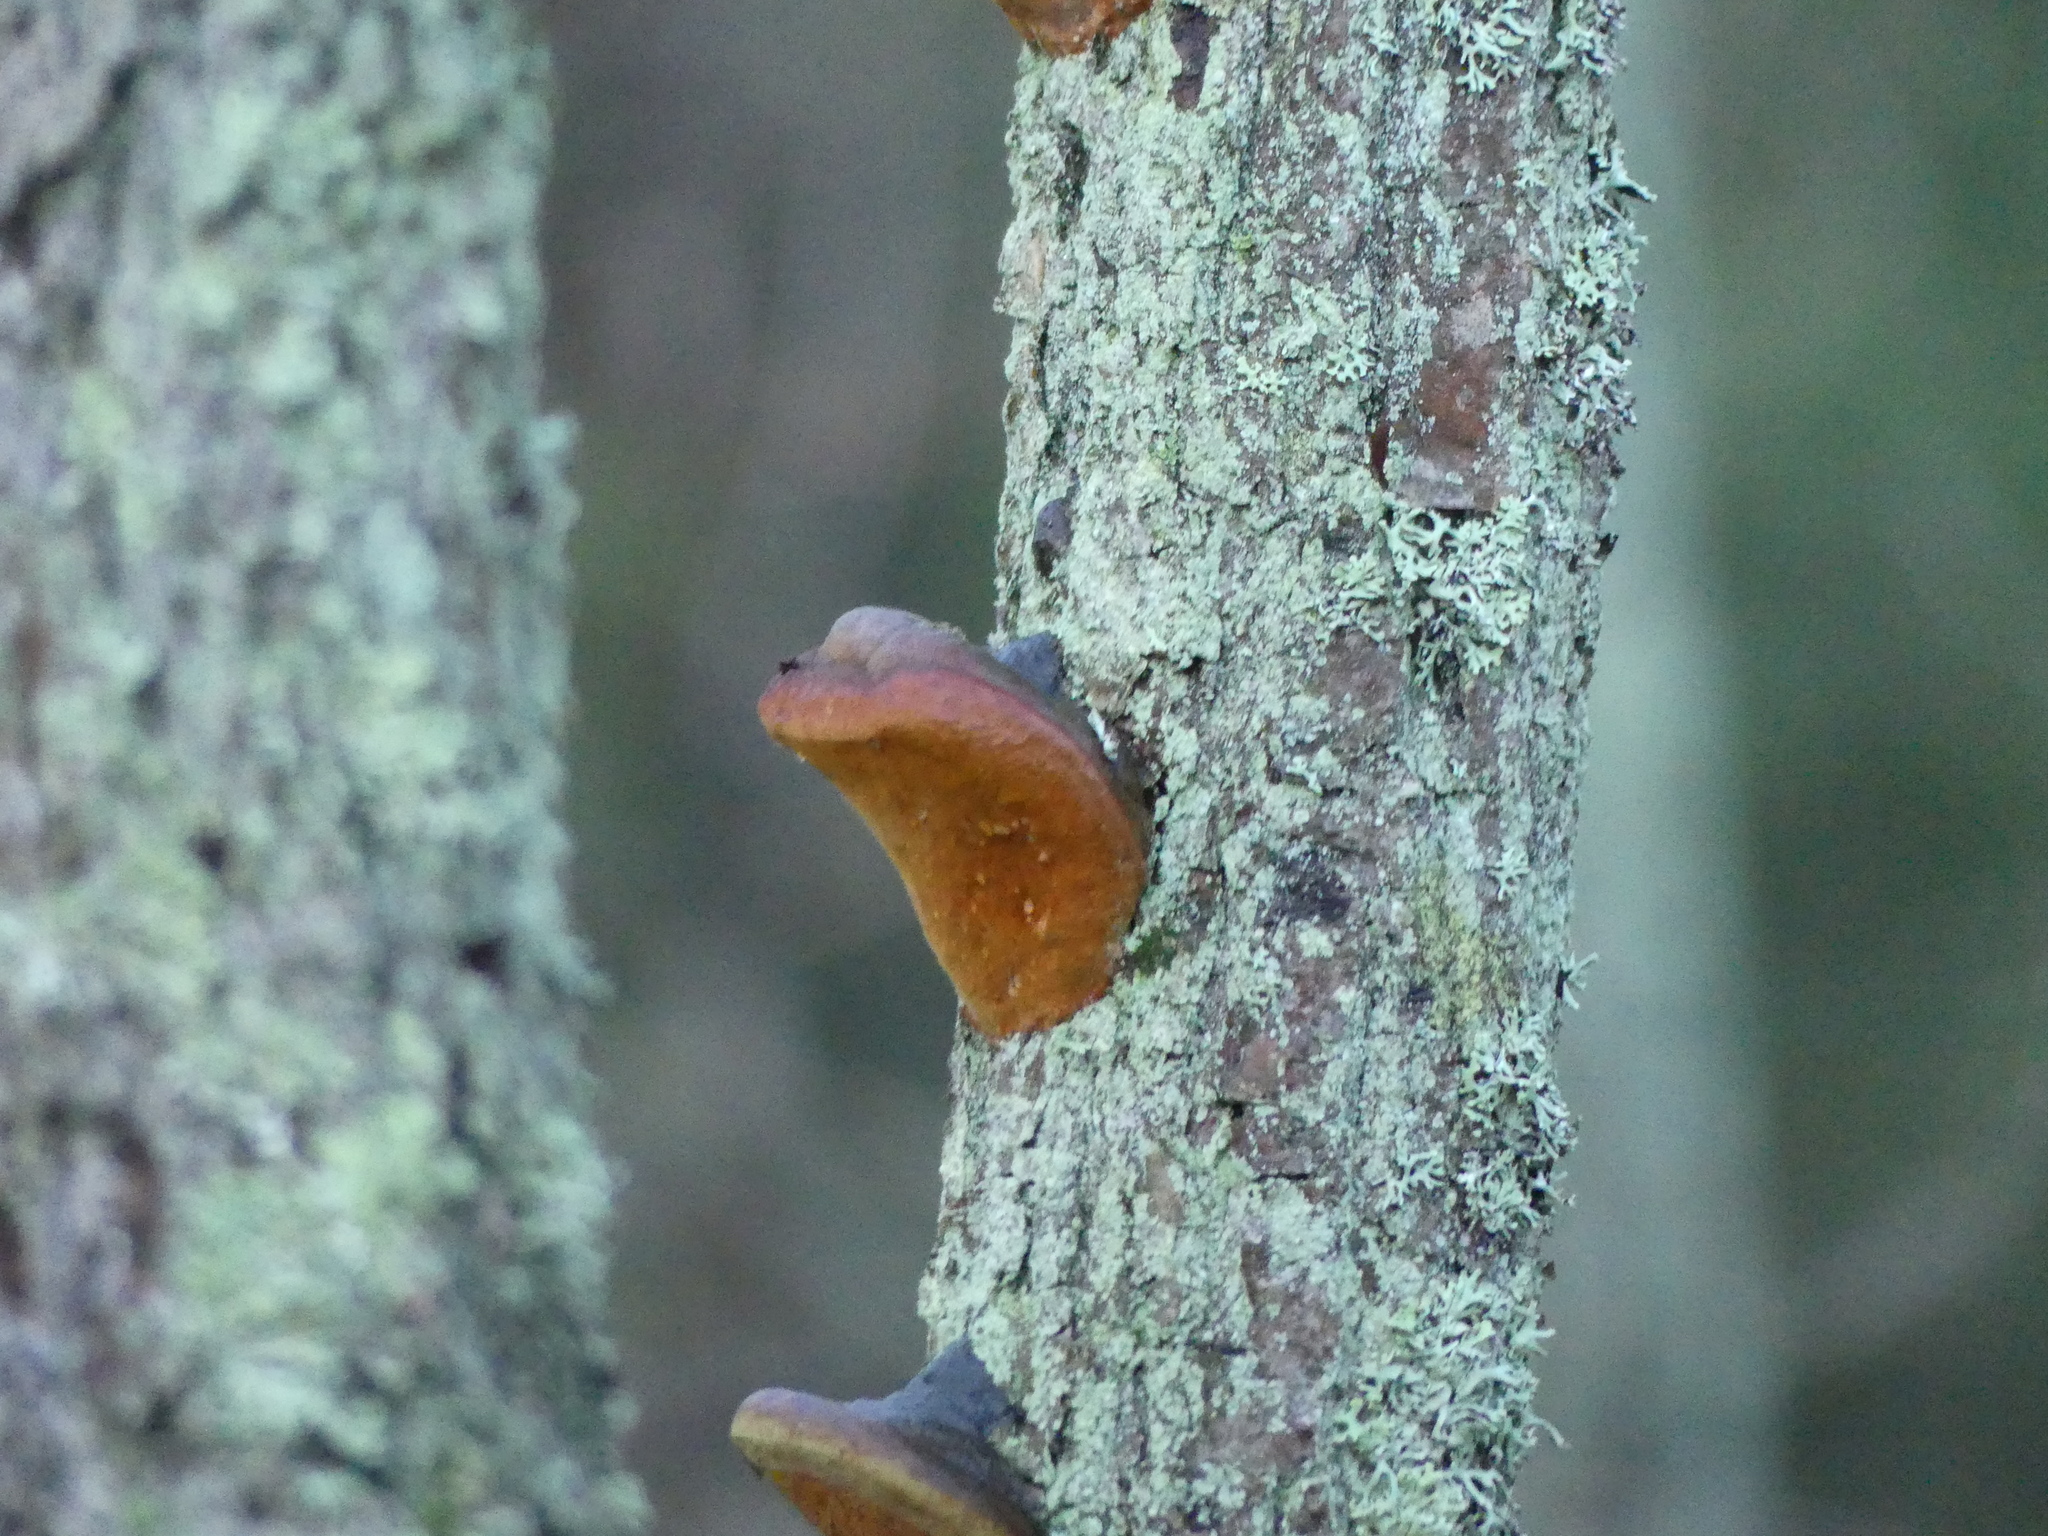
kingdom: Fungi
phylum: Basidiomycota
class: Agaricomycetes
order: Polyporales
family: Fomitopsidaceae
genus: Fomitopsis
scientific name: Fomitopsis pinicola
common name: Red-belted bracket
